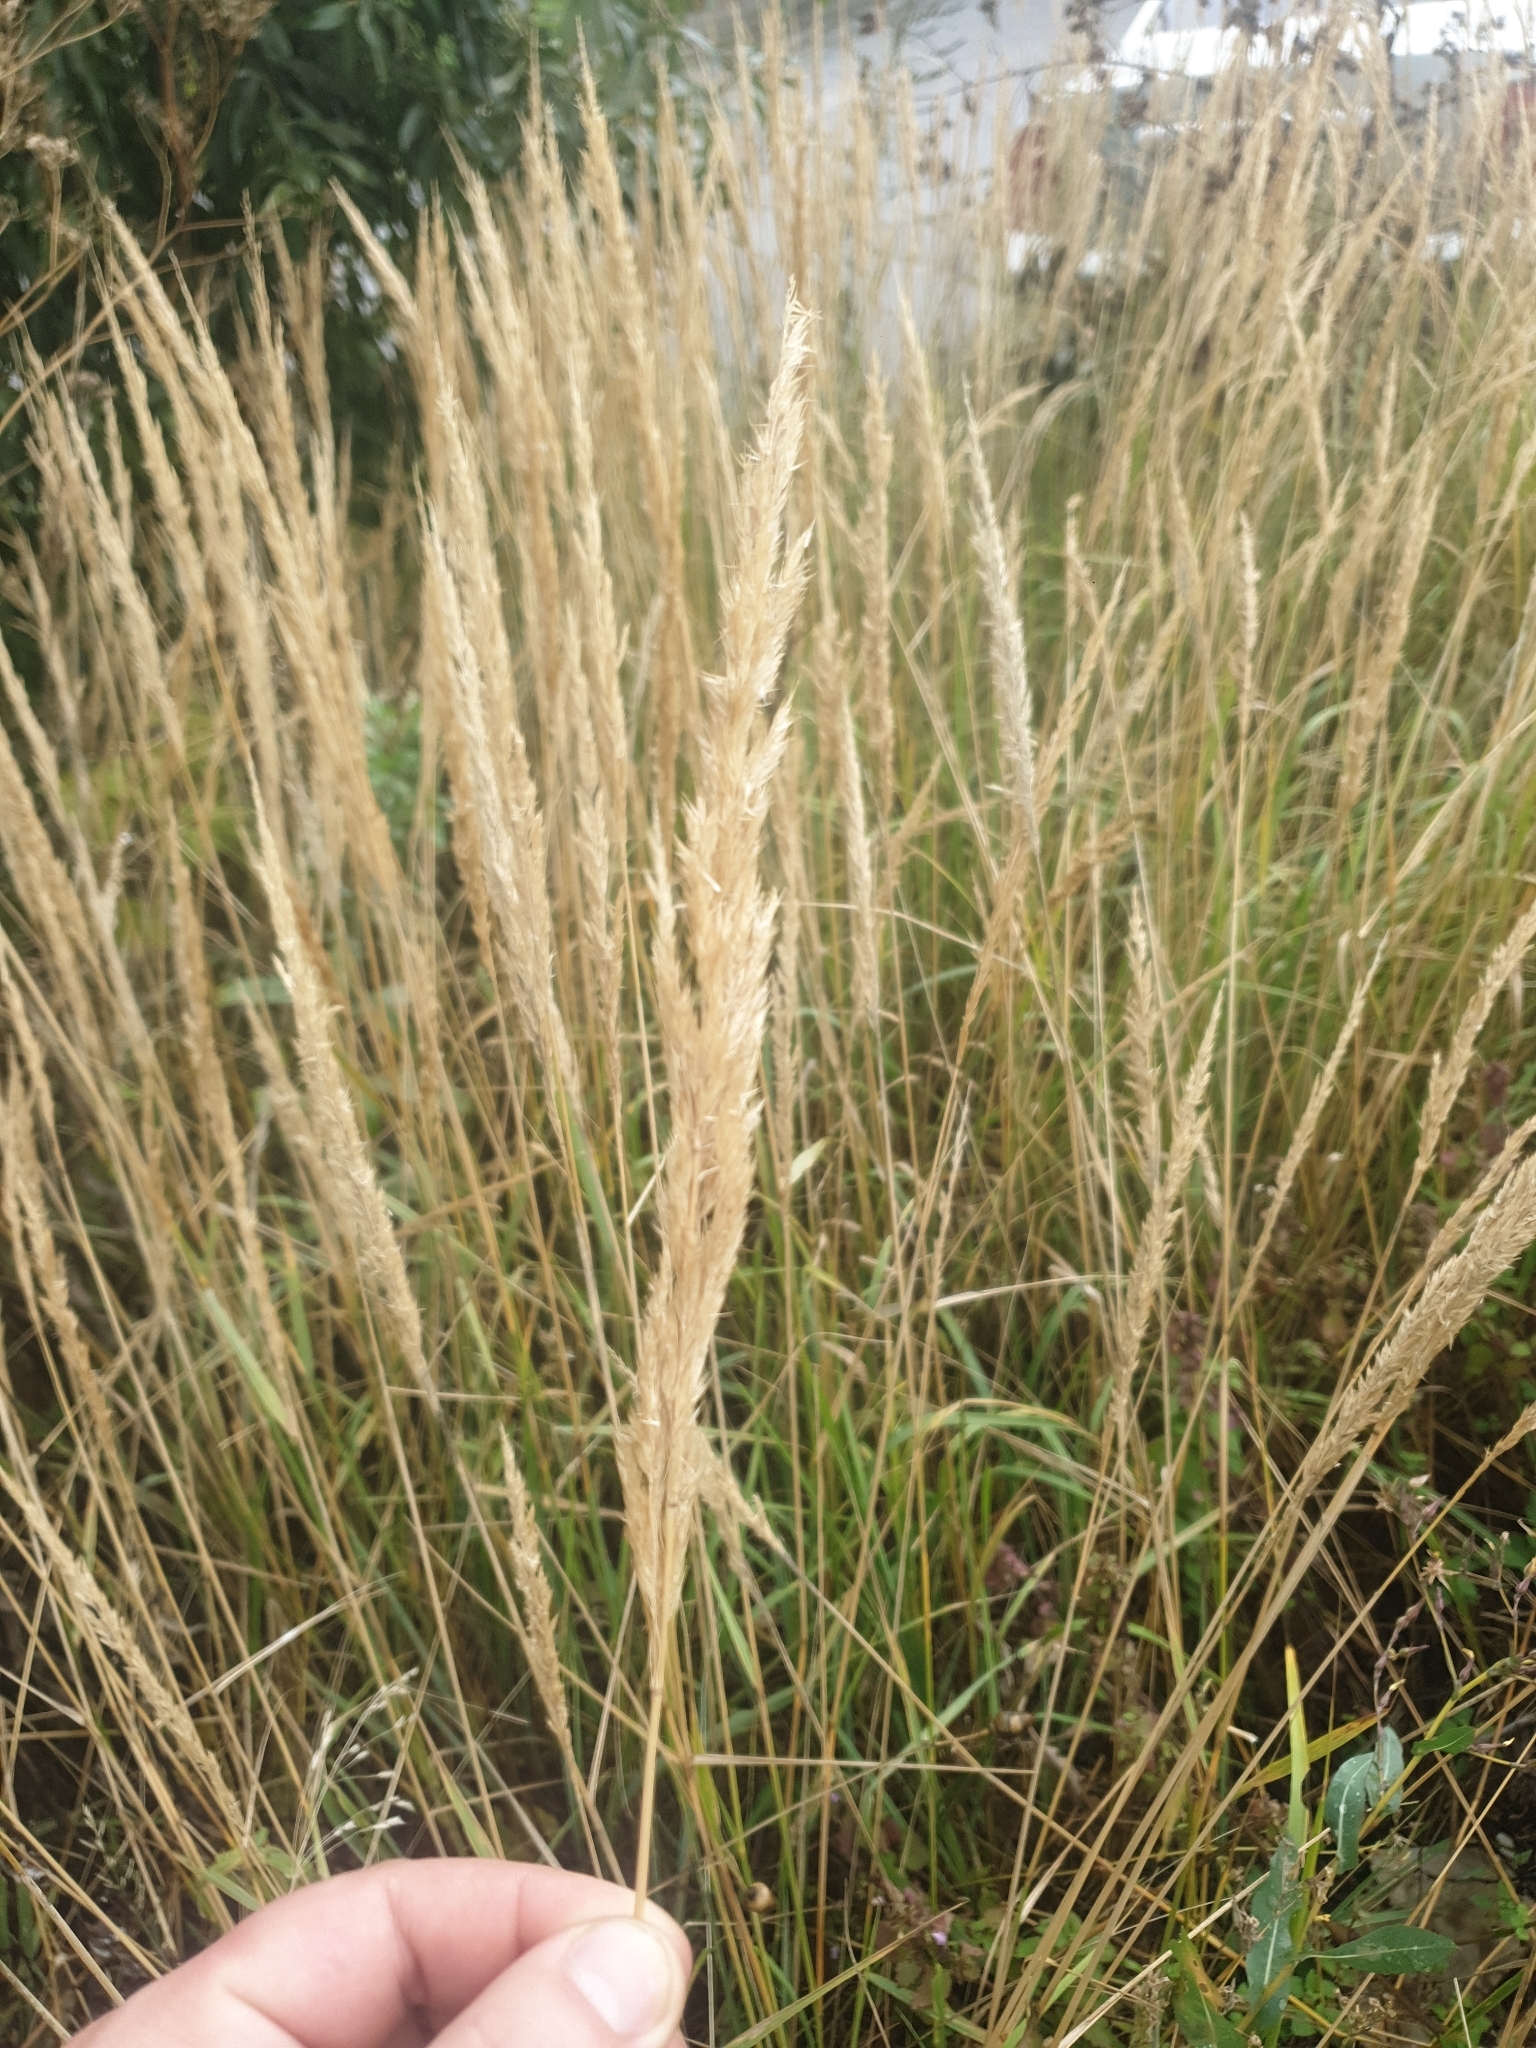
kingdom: Plantae
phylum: Tracheophyta
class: Liliopsida
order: Poales
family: Poaceae
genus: Calamagrostis
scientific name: Calamagrostis epigejos
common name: Wood small-reed
